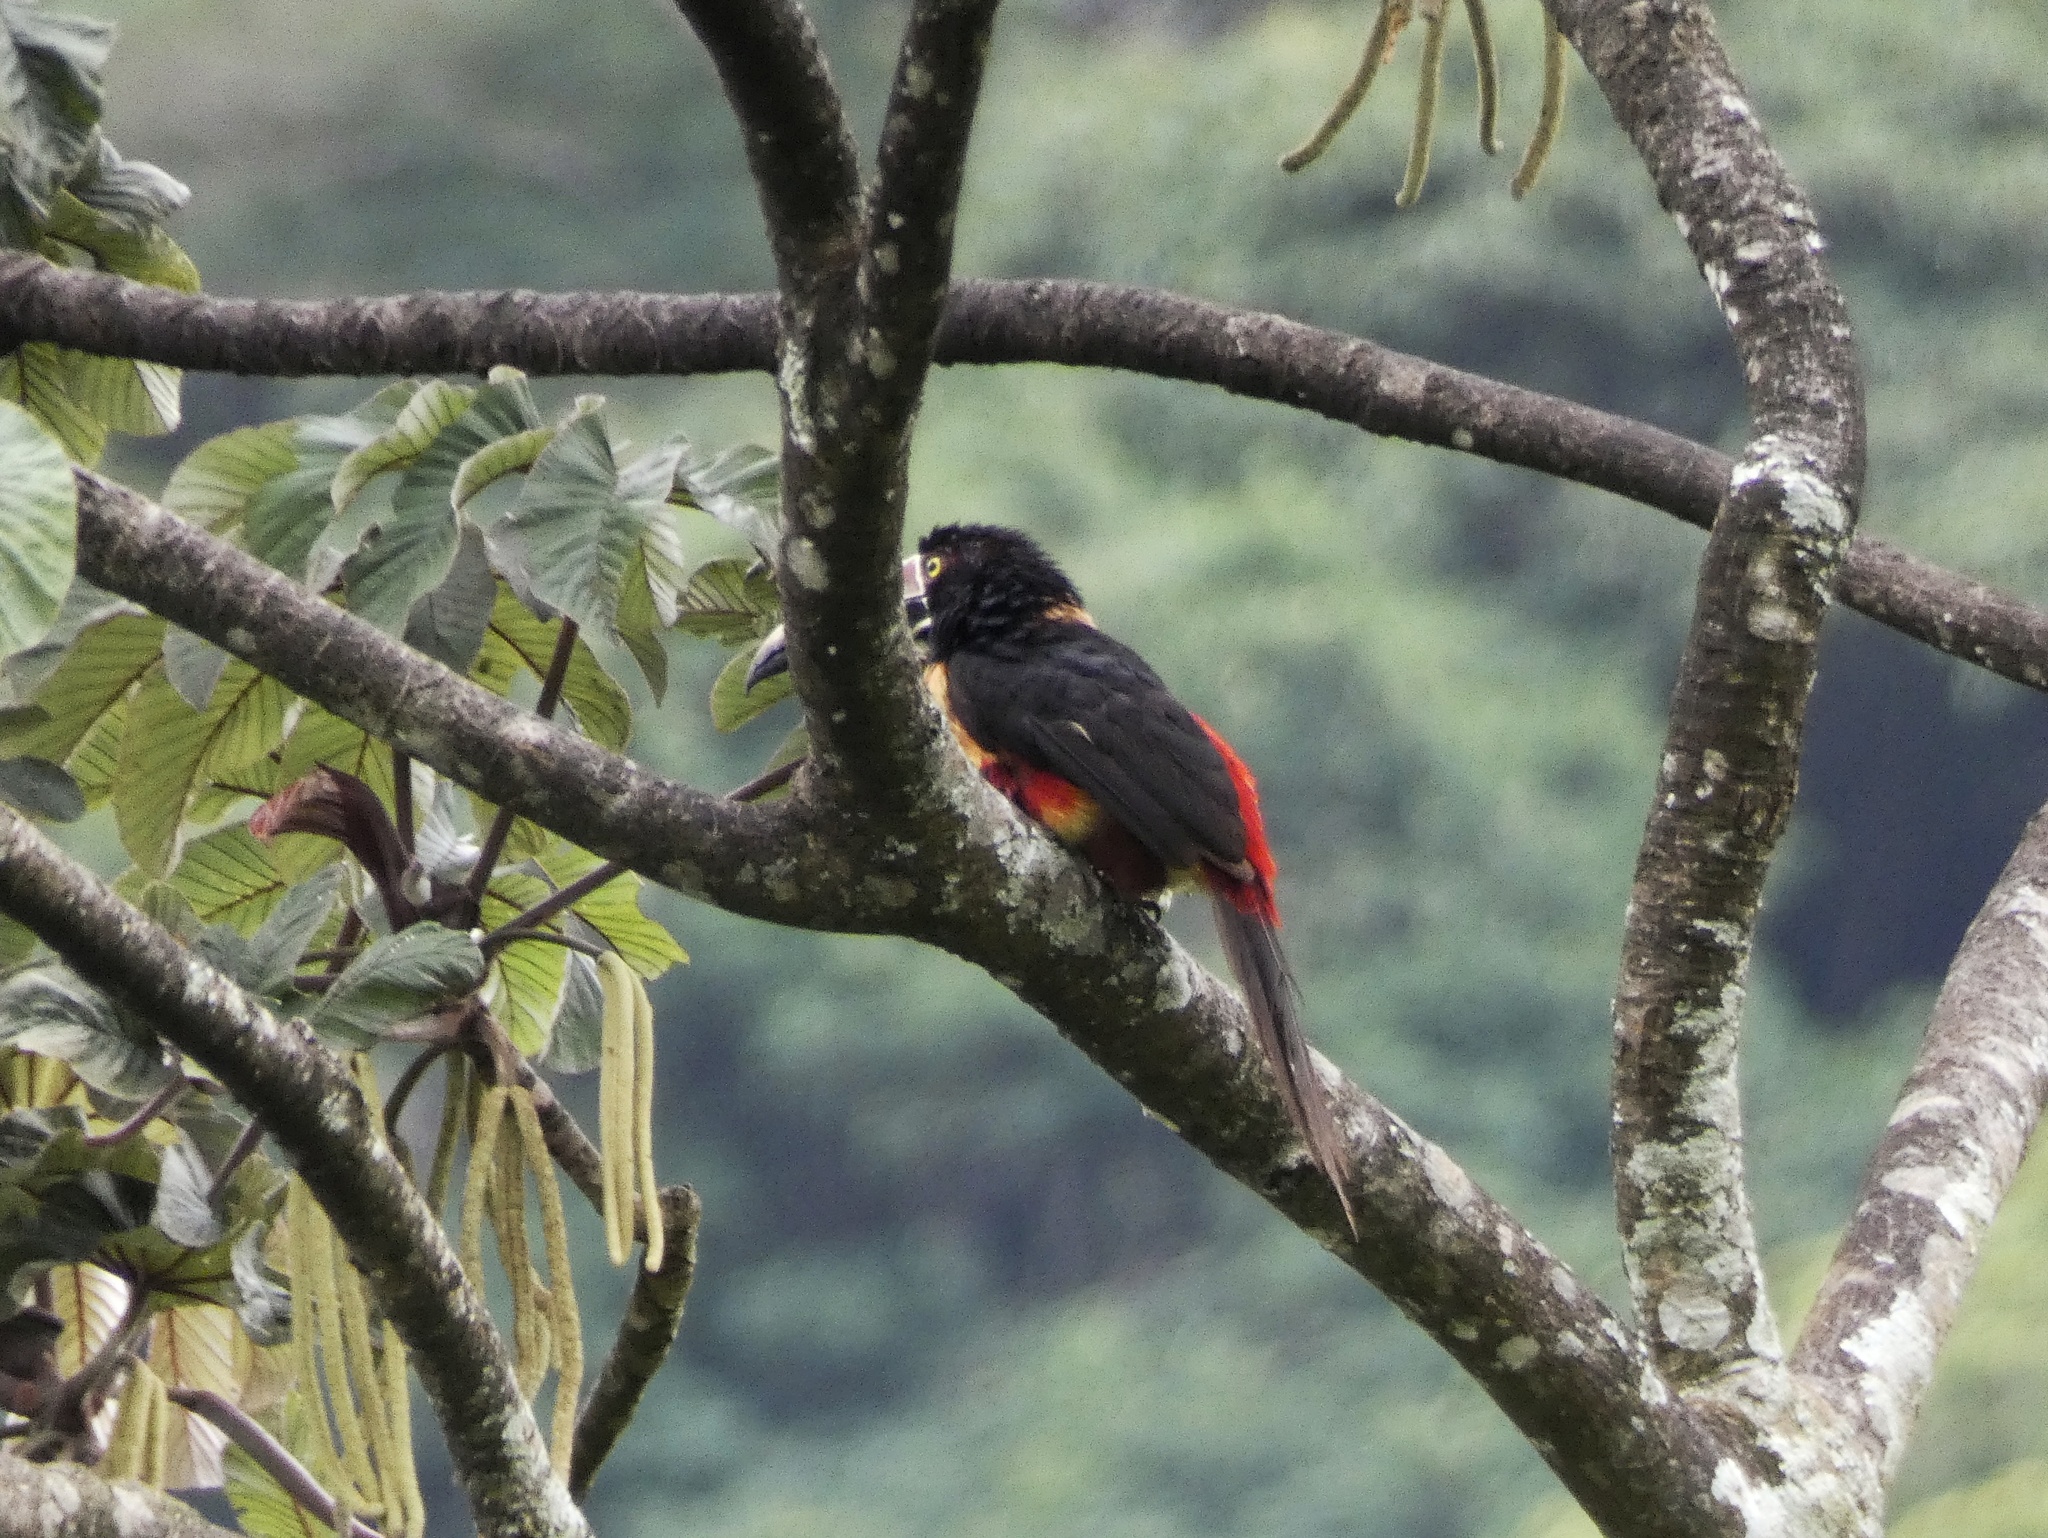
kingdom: Animalia
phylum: Chordata
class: Aves
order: Piciformes
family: Ramphastidae
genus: Pteroglossus
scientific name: Pteroglossus torquatus
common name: Collared aracari
